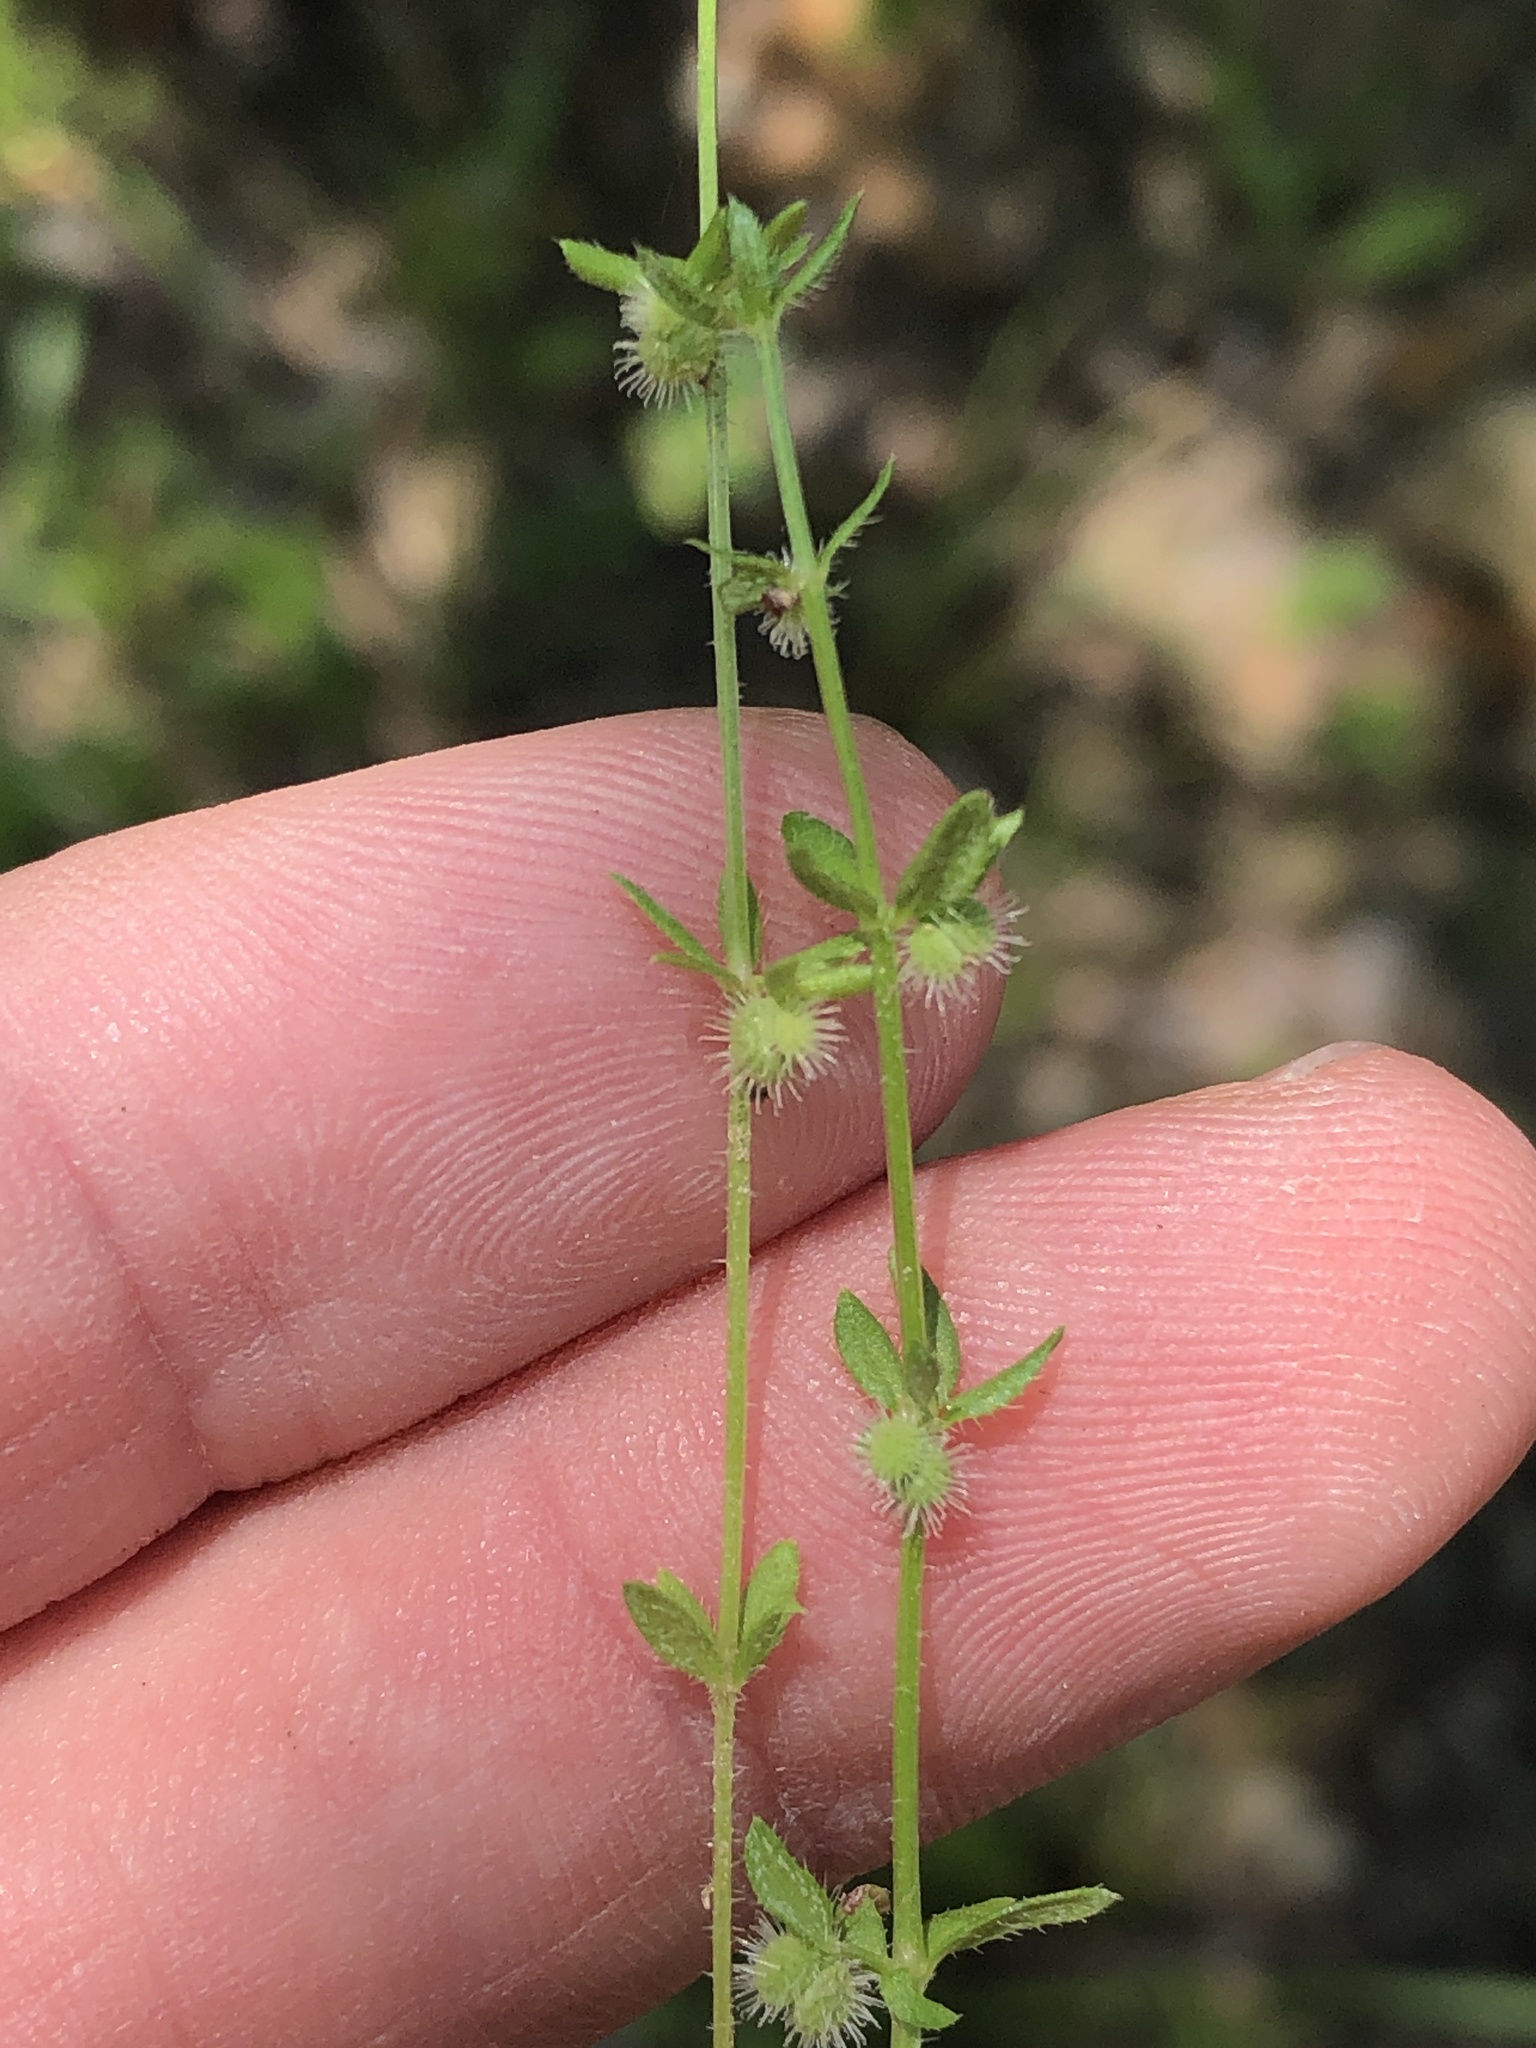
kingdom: Plantae
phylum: Tracheophyta
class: Magnoliopsida
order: Gentianales
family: Rubiaceae
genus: Galium
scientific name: Galium virgatum
